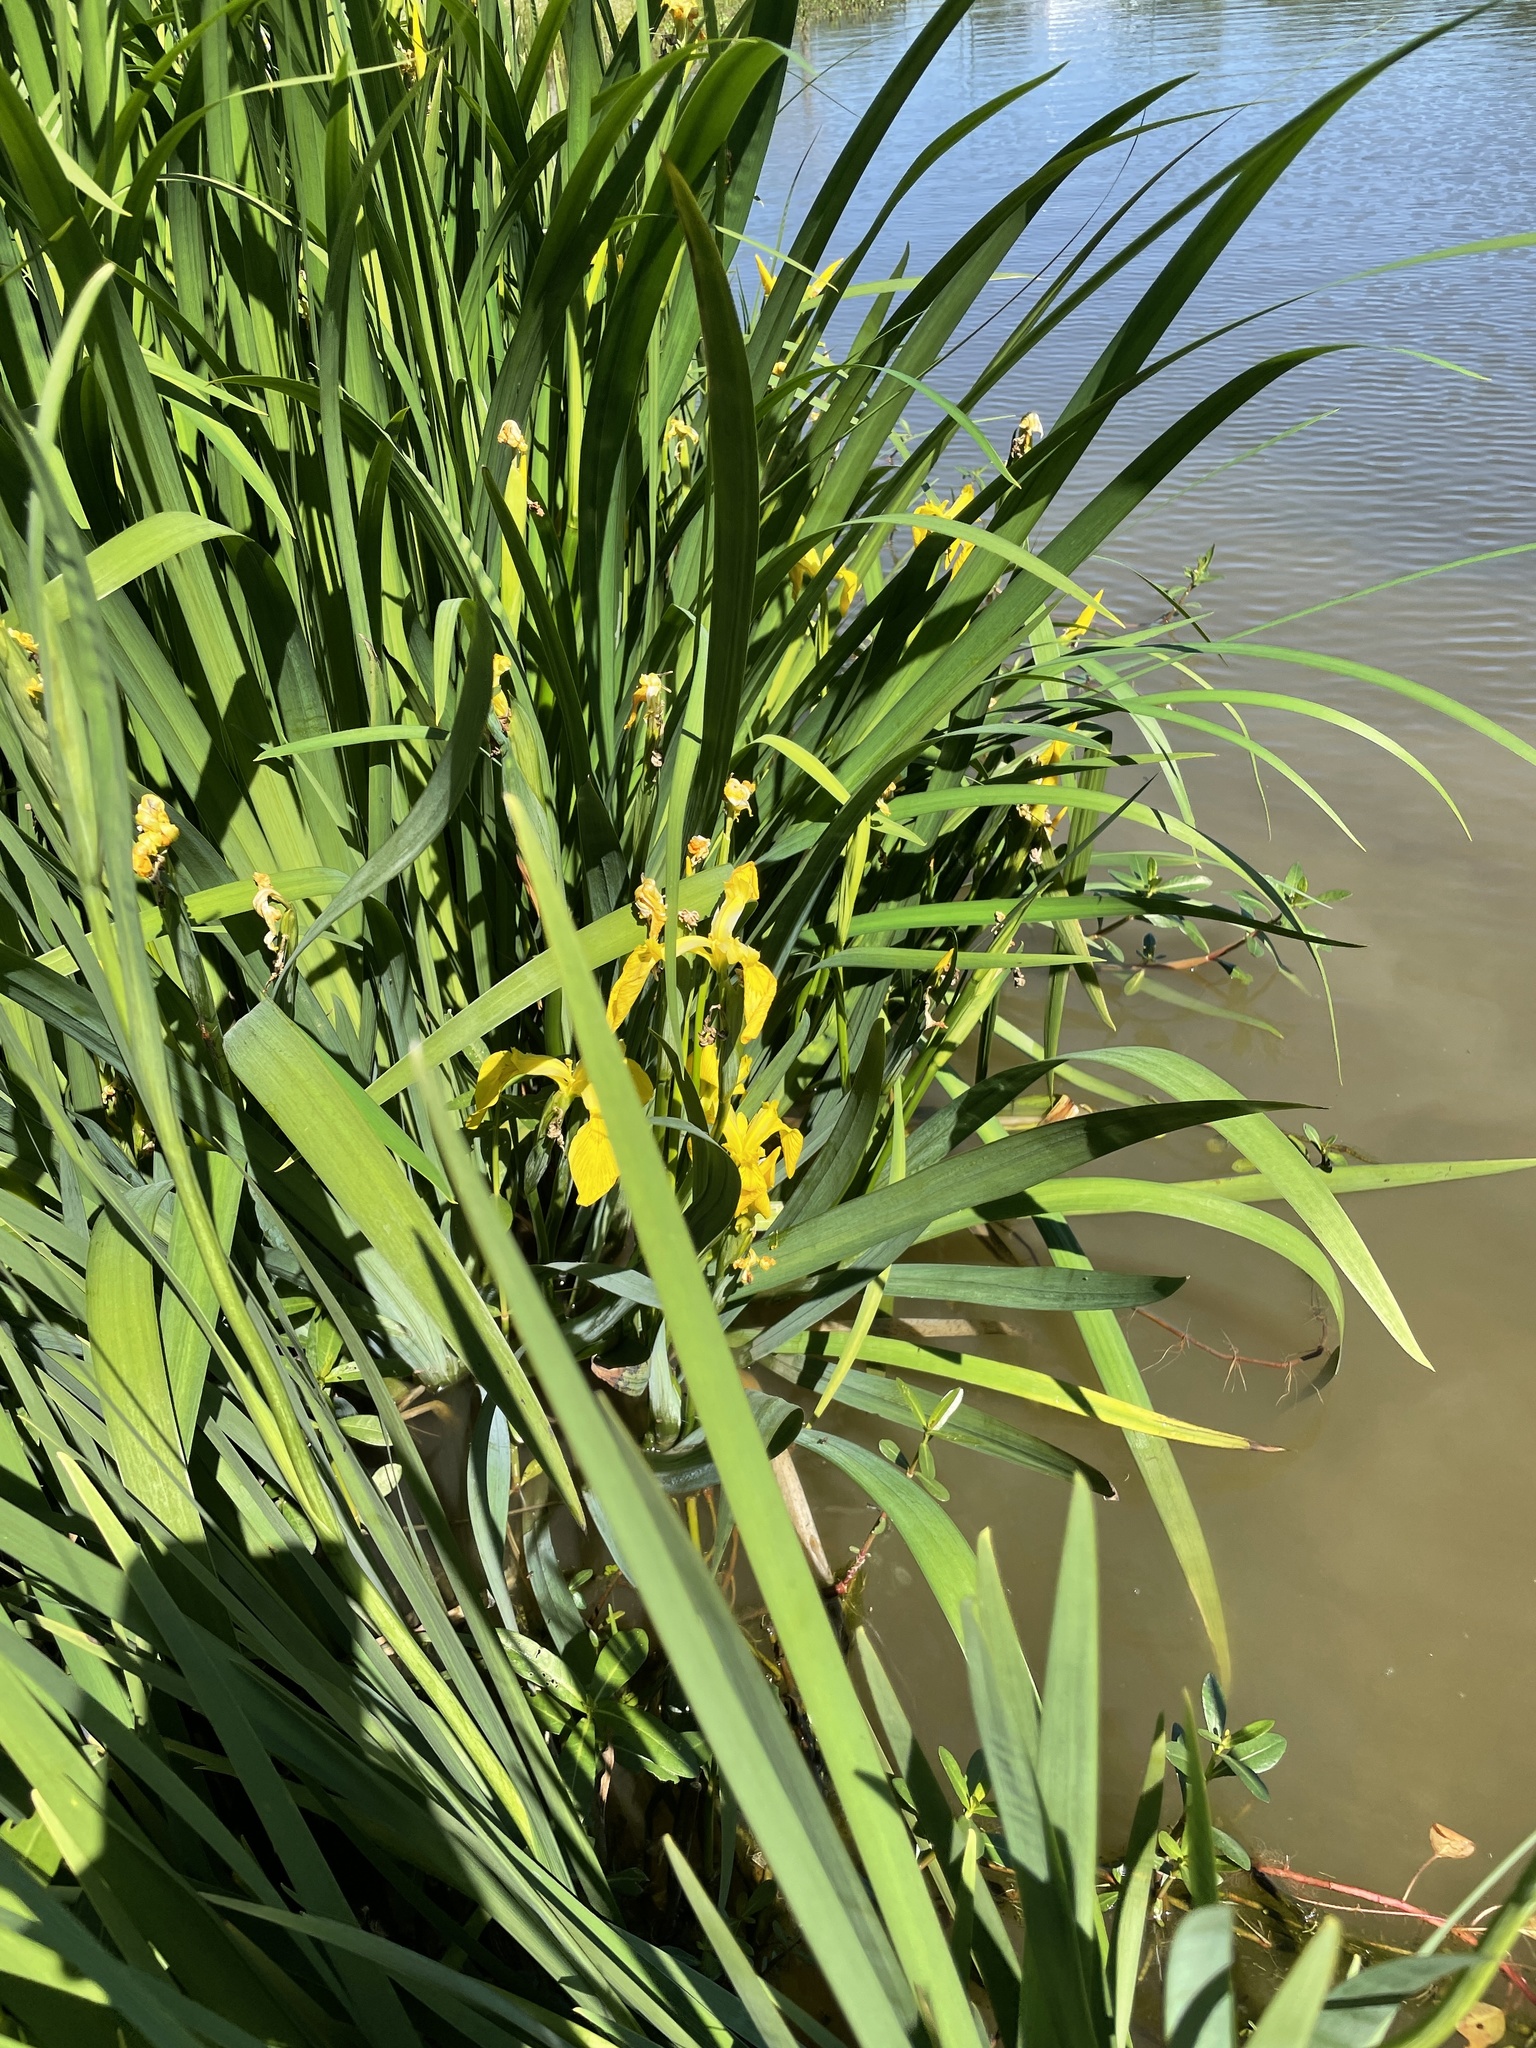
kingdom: Plantae
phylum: Tracheophyta
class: Liliopsida
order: Asparagales
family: Iridaceae
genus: Iris
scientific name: Iris pseudacorus
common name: Yellow flag
